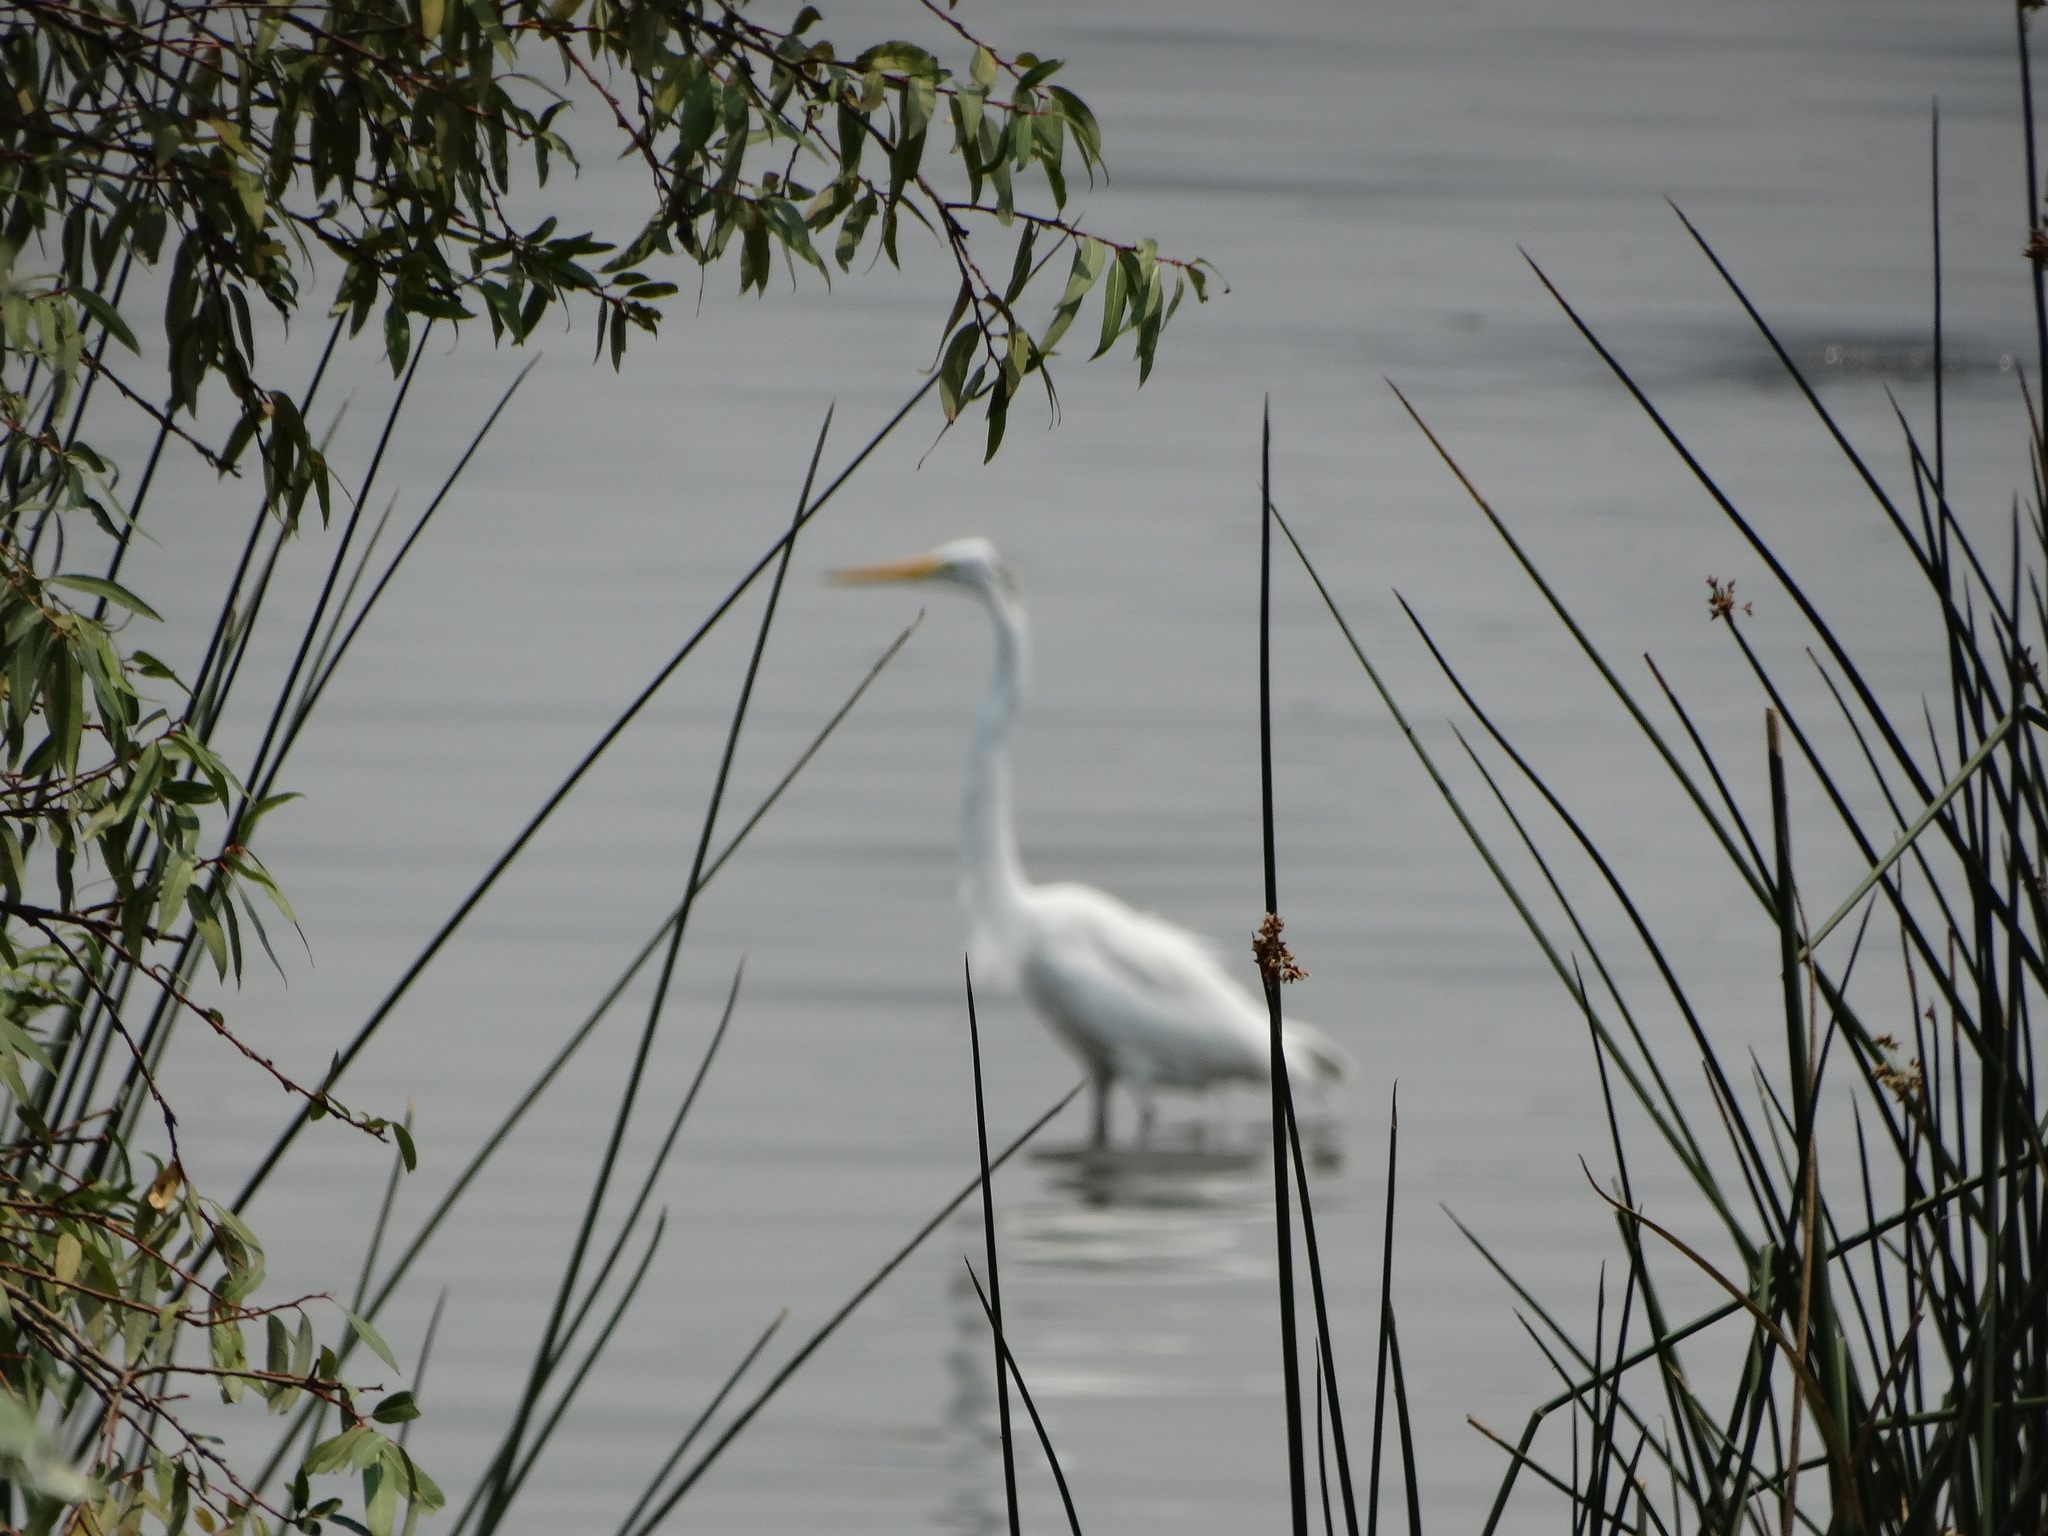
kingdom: Animalia
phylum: Chordata
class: Aves
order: Pelecaniformes
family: Ardeidae
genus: Ardea
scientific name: Ardea alba
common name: Great egret
